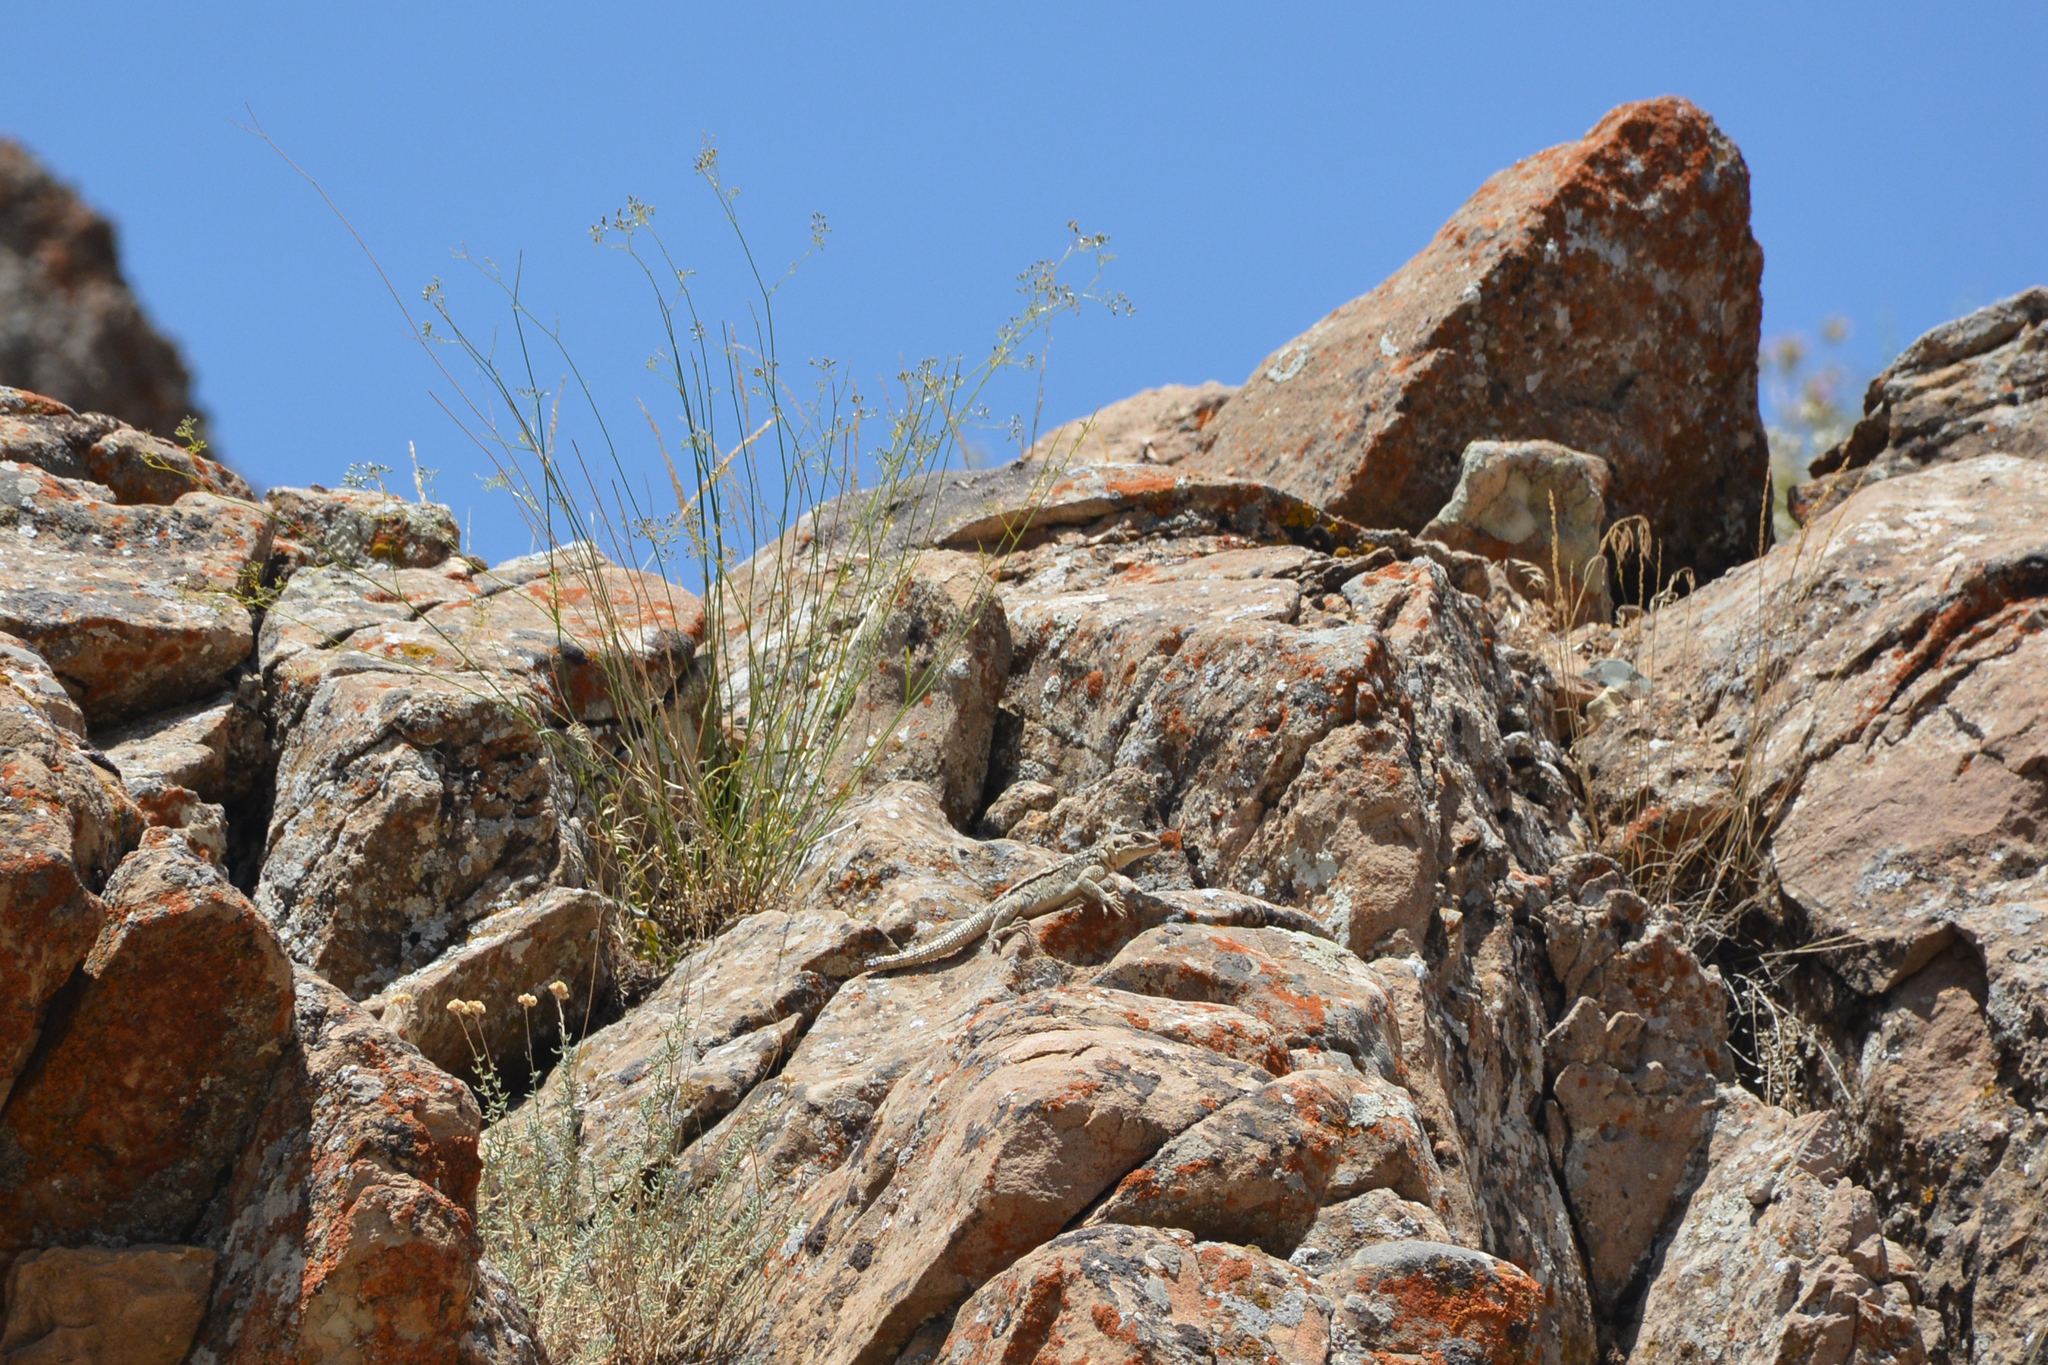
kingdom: Animalia
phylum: Chordata
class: Squamata
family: Agamidae
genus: Paralaudakia
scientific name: Paralaudakia caucasia
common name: Caucasian agama
